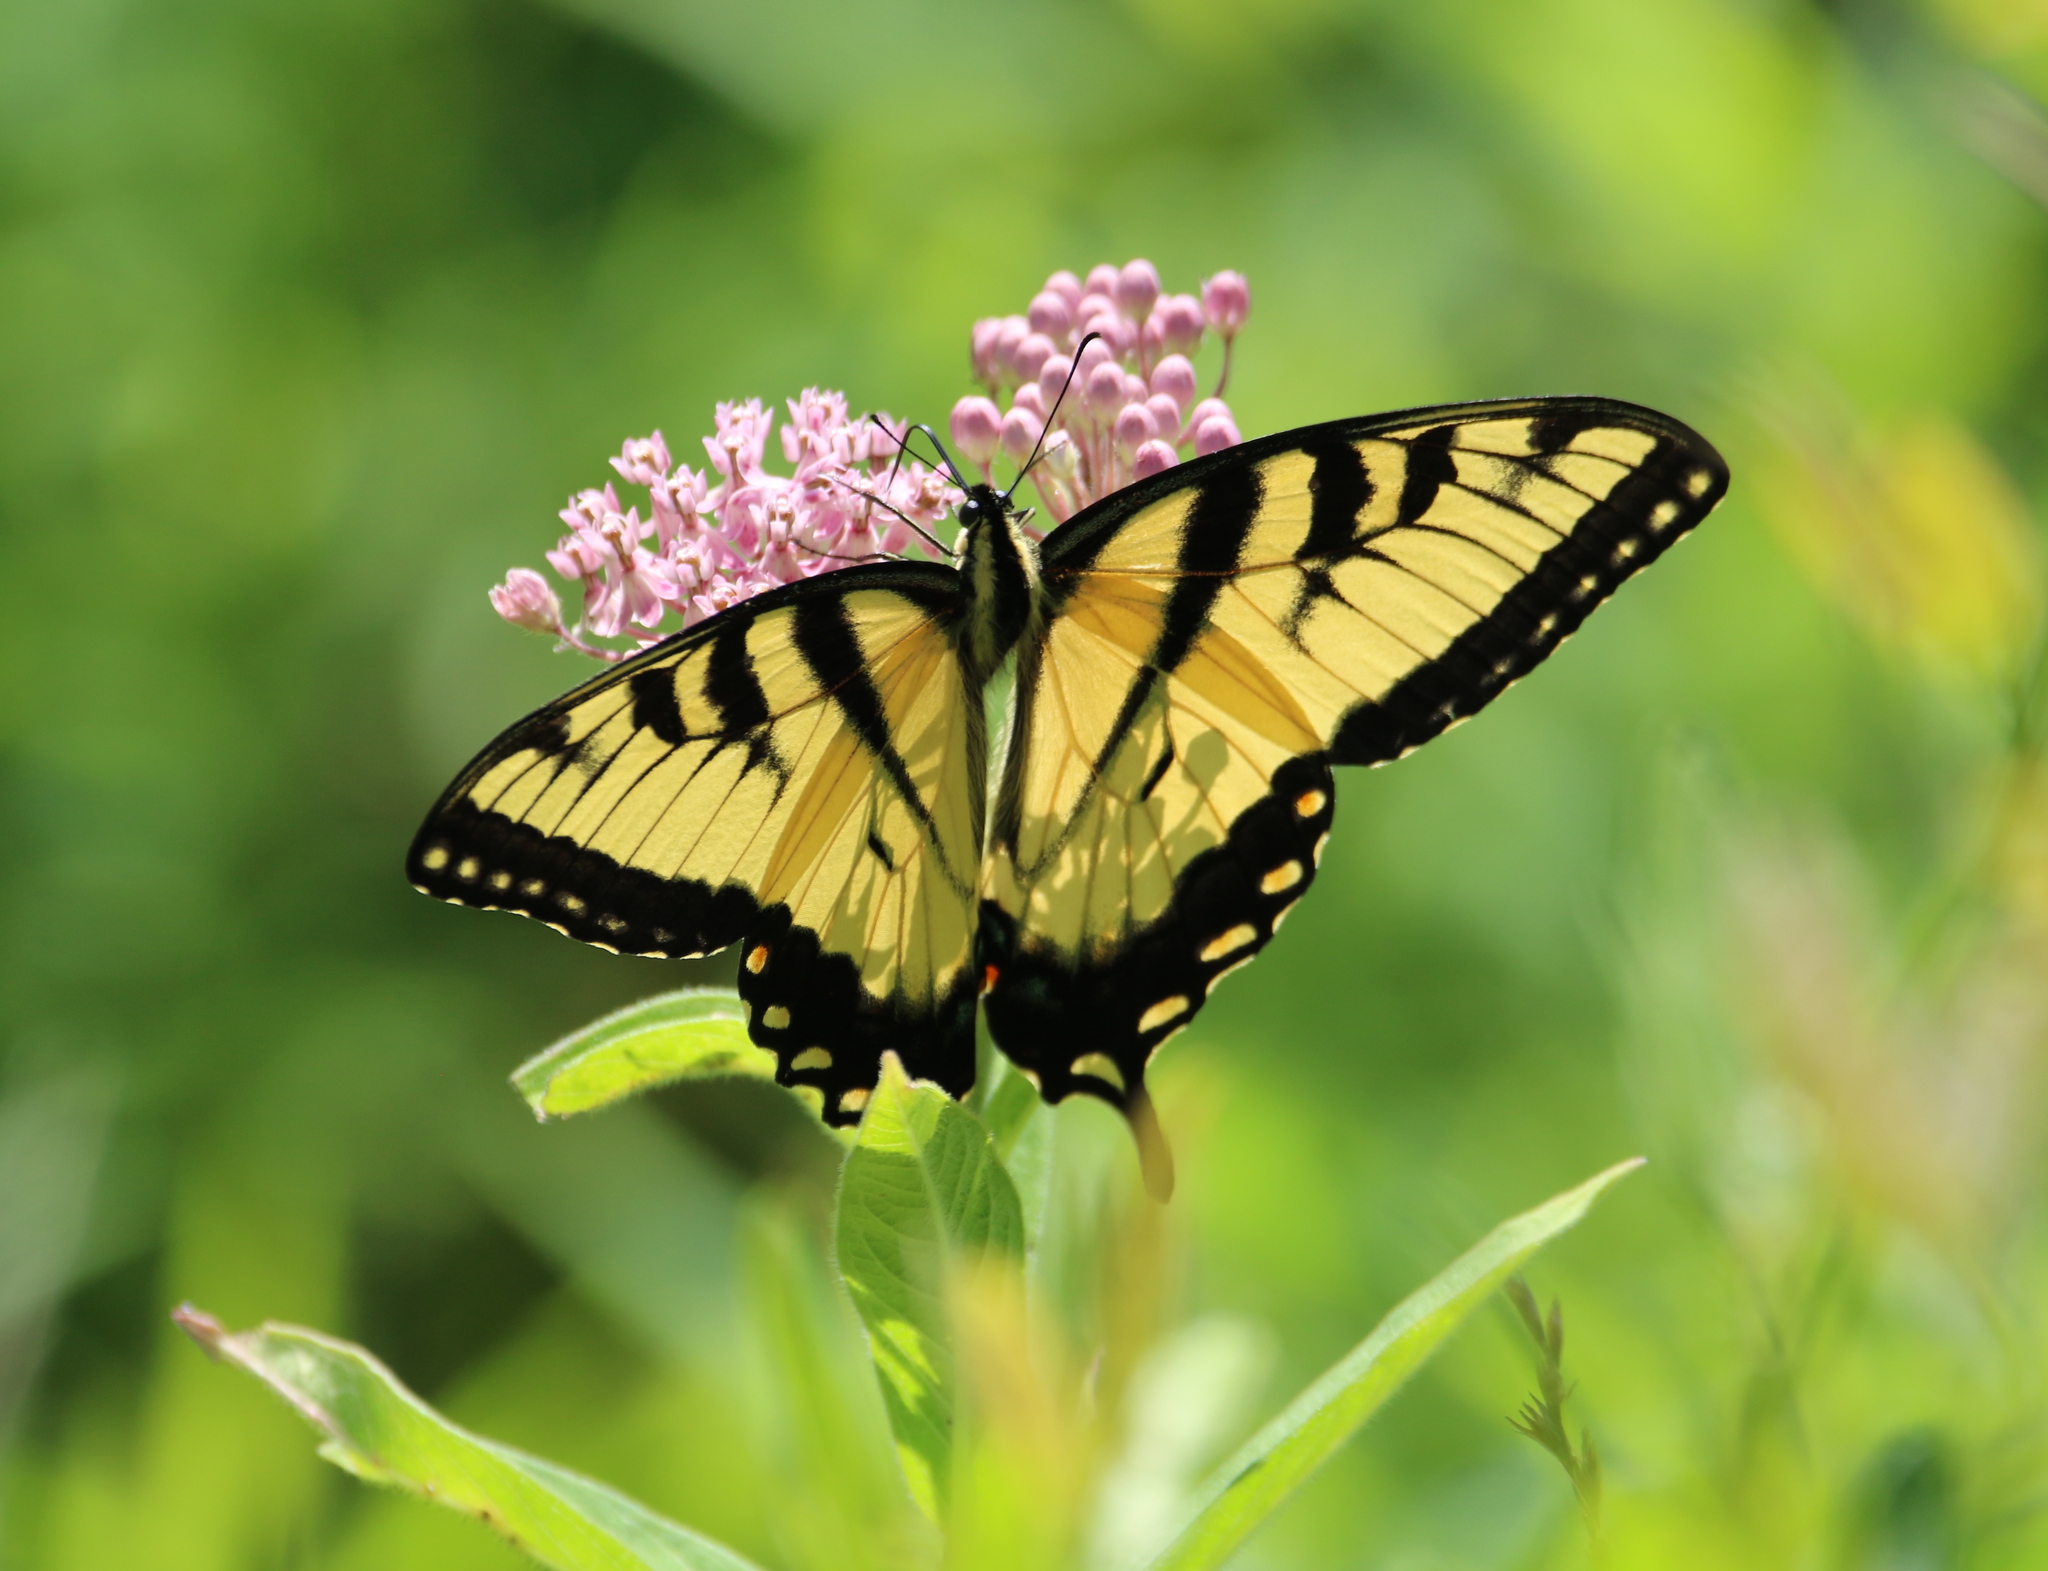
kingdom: Animalia
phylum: Arthropoda
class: Insecta
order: Lepidoptera
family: Papilionidae
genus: Papilio
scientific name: Papilio glaucus
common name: Tiger swallowtail
